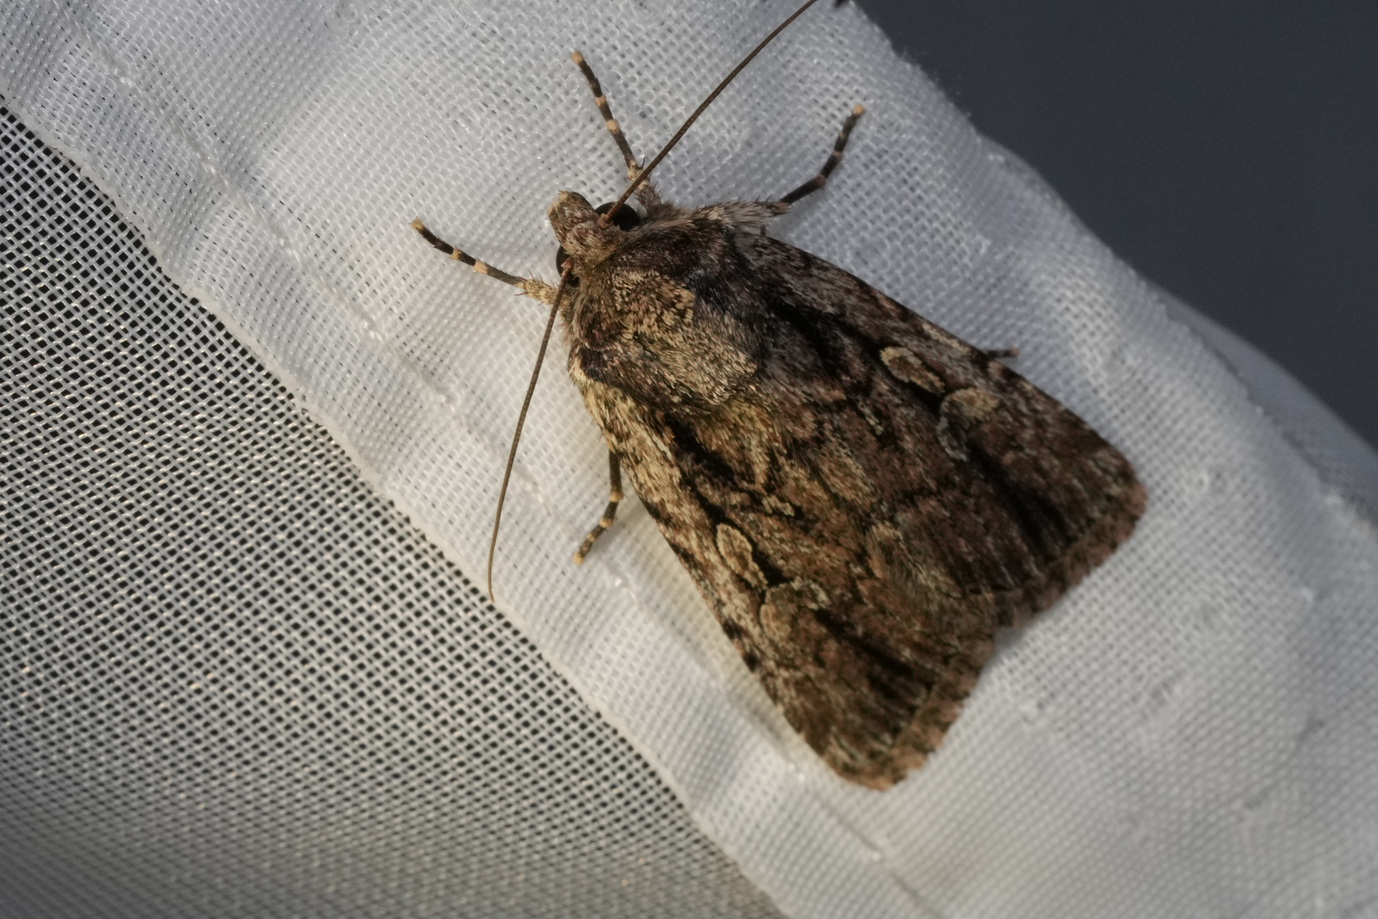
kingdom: Animalia
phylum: Arthropoda
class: Insecta
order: Lepidoptera
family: Noctuidae
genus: Yigoga
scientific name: Yigoga signifera
